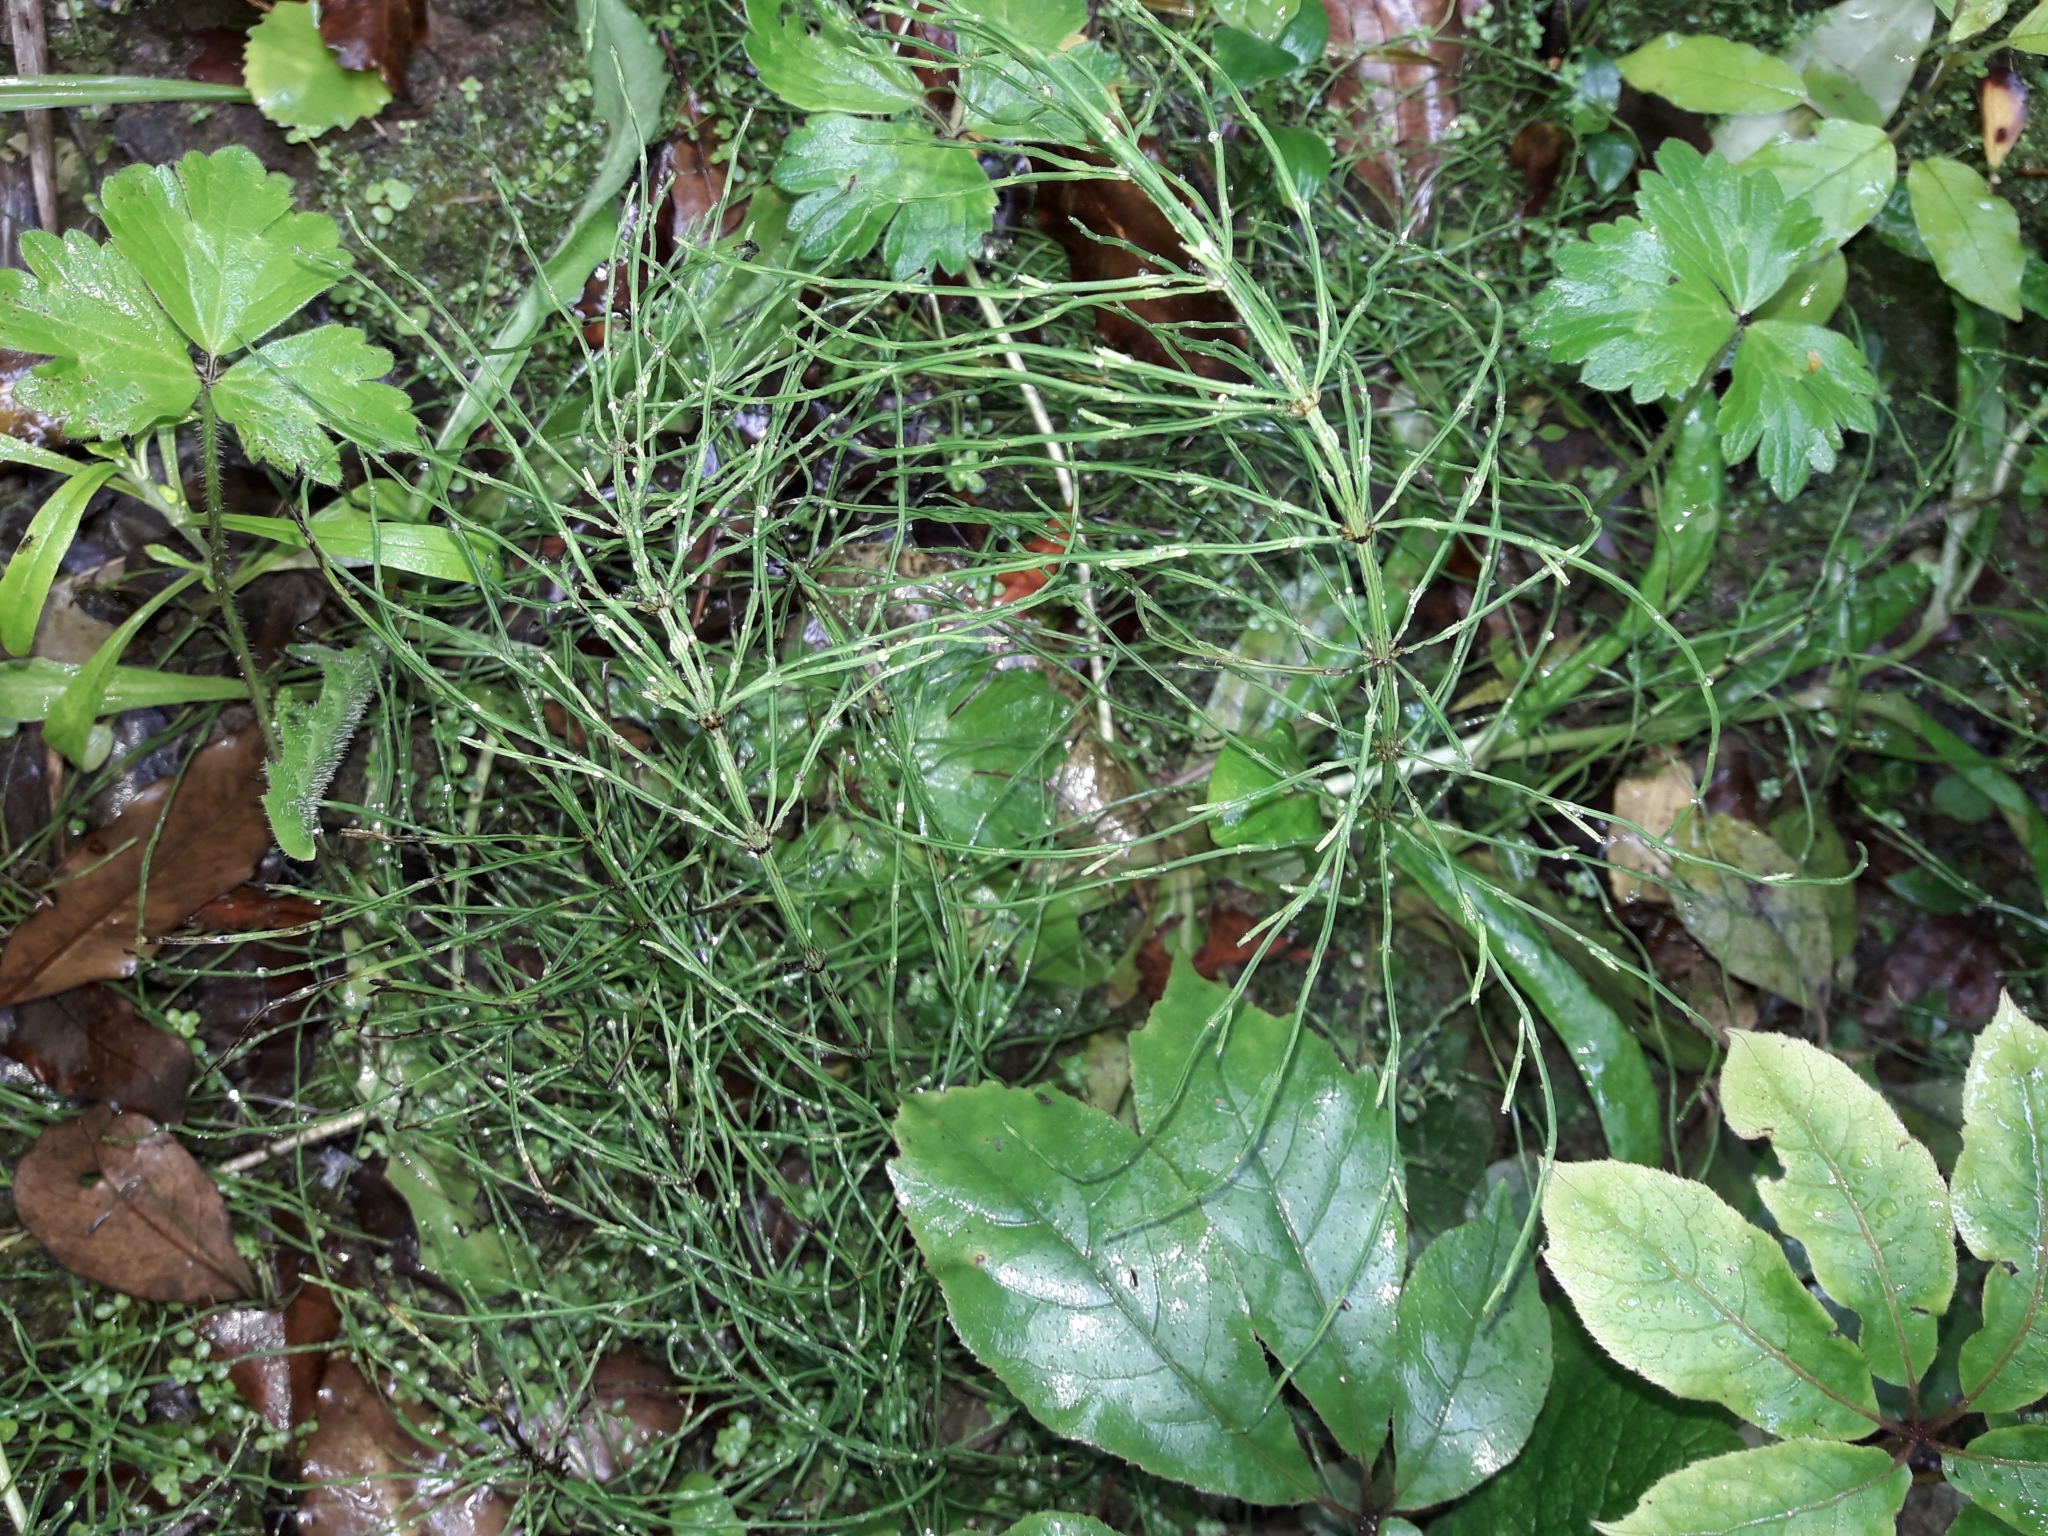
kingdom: Plantae
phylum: Tracheophyta
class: Polypodiopsida
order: Equisetales
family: Equisetaceae
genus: Equisetum
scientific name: Equisetum arvense
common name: Field horsetail
